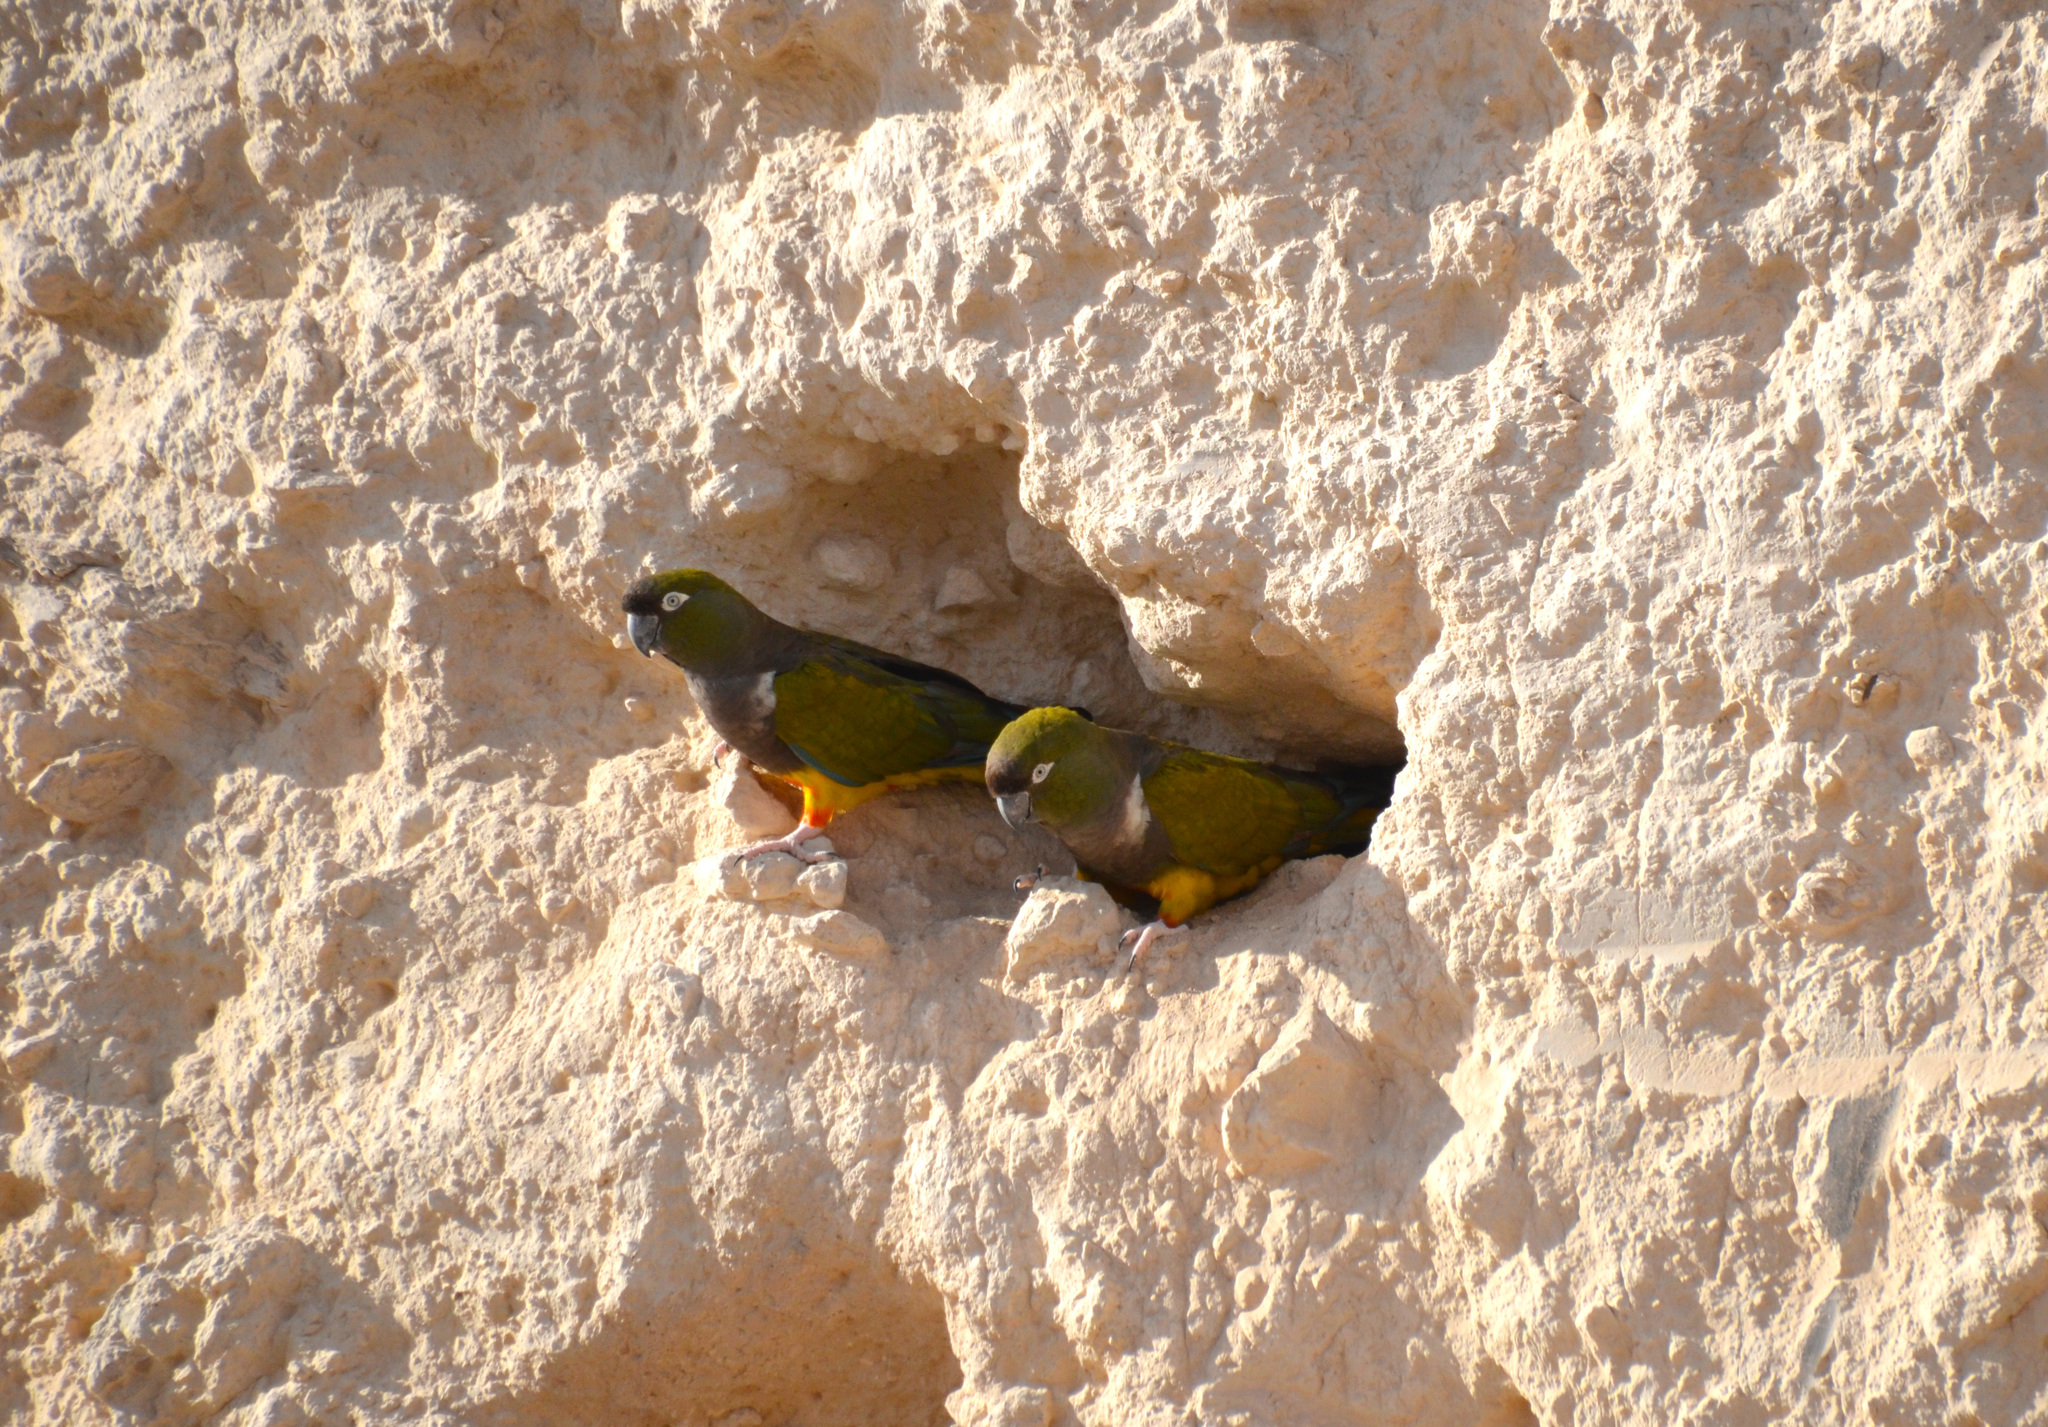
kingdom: Animalia
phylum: Chordata
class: Aves
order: Psittaciformes
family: Psittacidae
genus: Cyanoliseus
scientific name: Cyanoliseus patagonus
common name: Burrowing parrot
